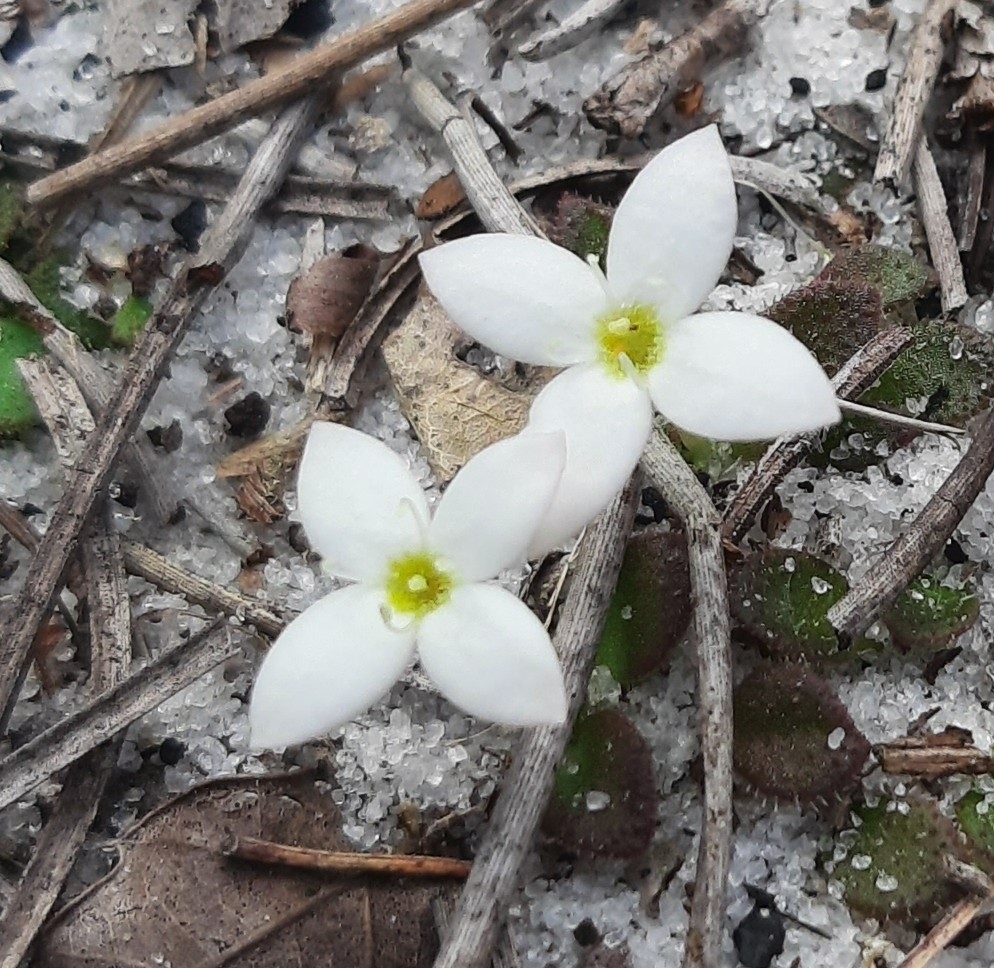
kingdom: Plantae
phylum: Tracheophyta
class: Magnoliopsida
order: Gentianales
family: Rubiaceae
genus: Houstonia
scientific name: Houstonia procumbens
